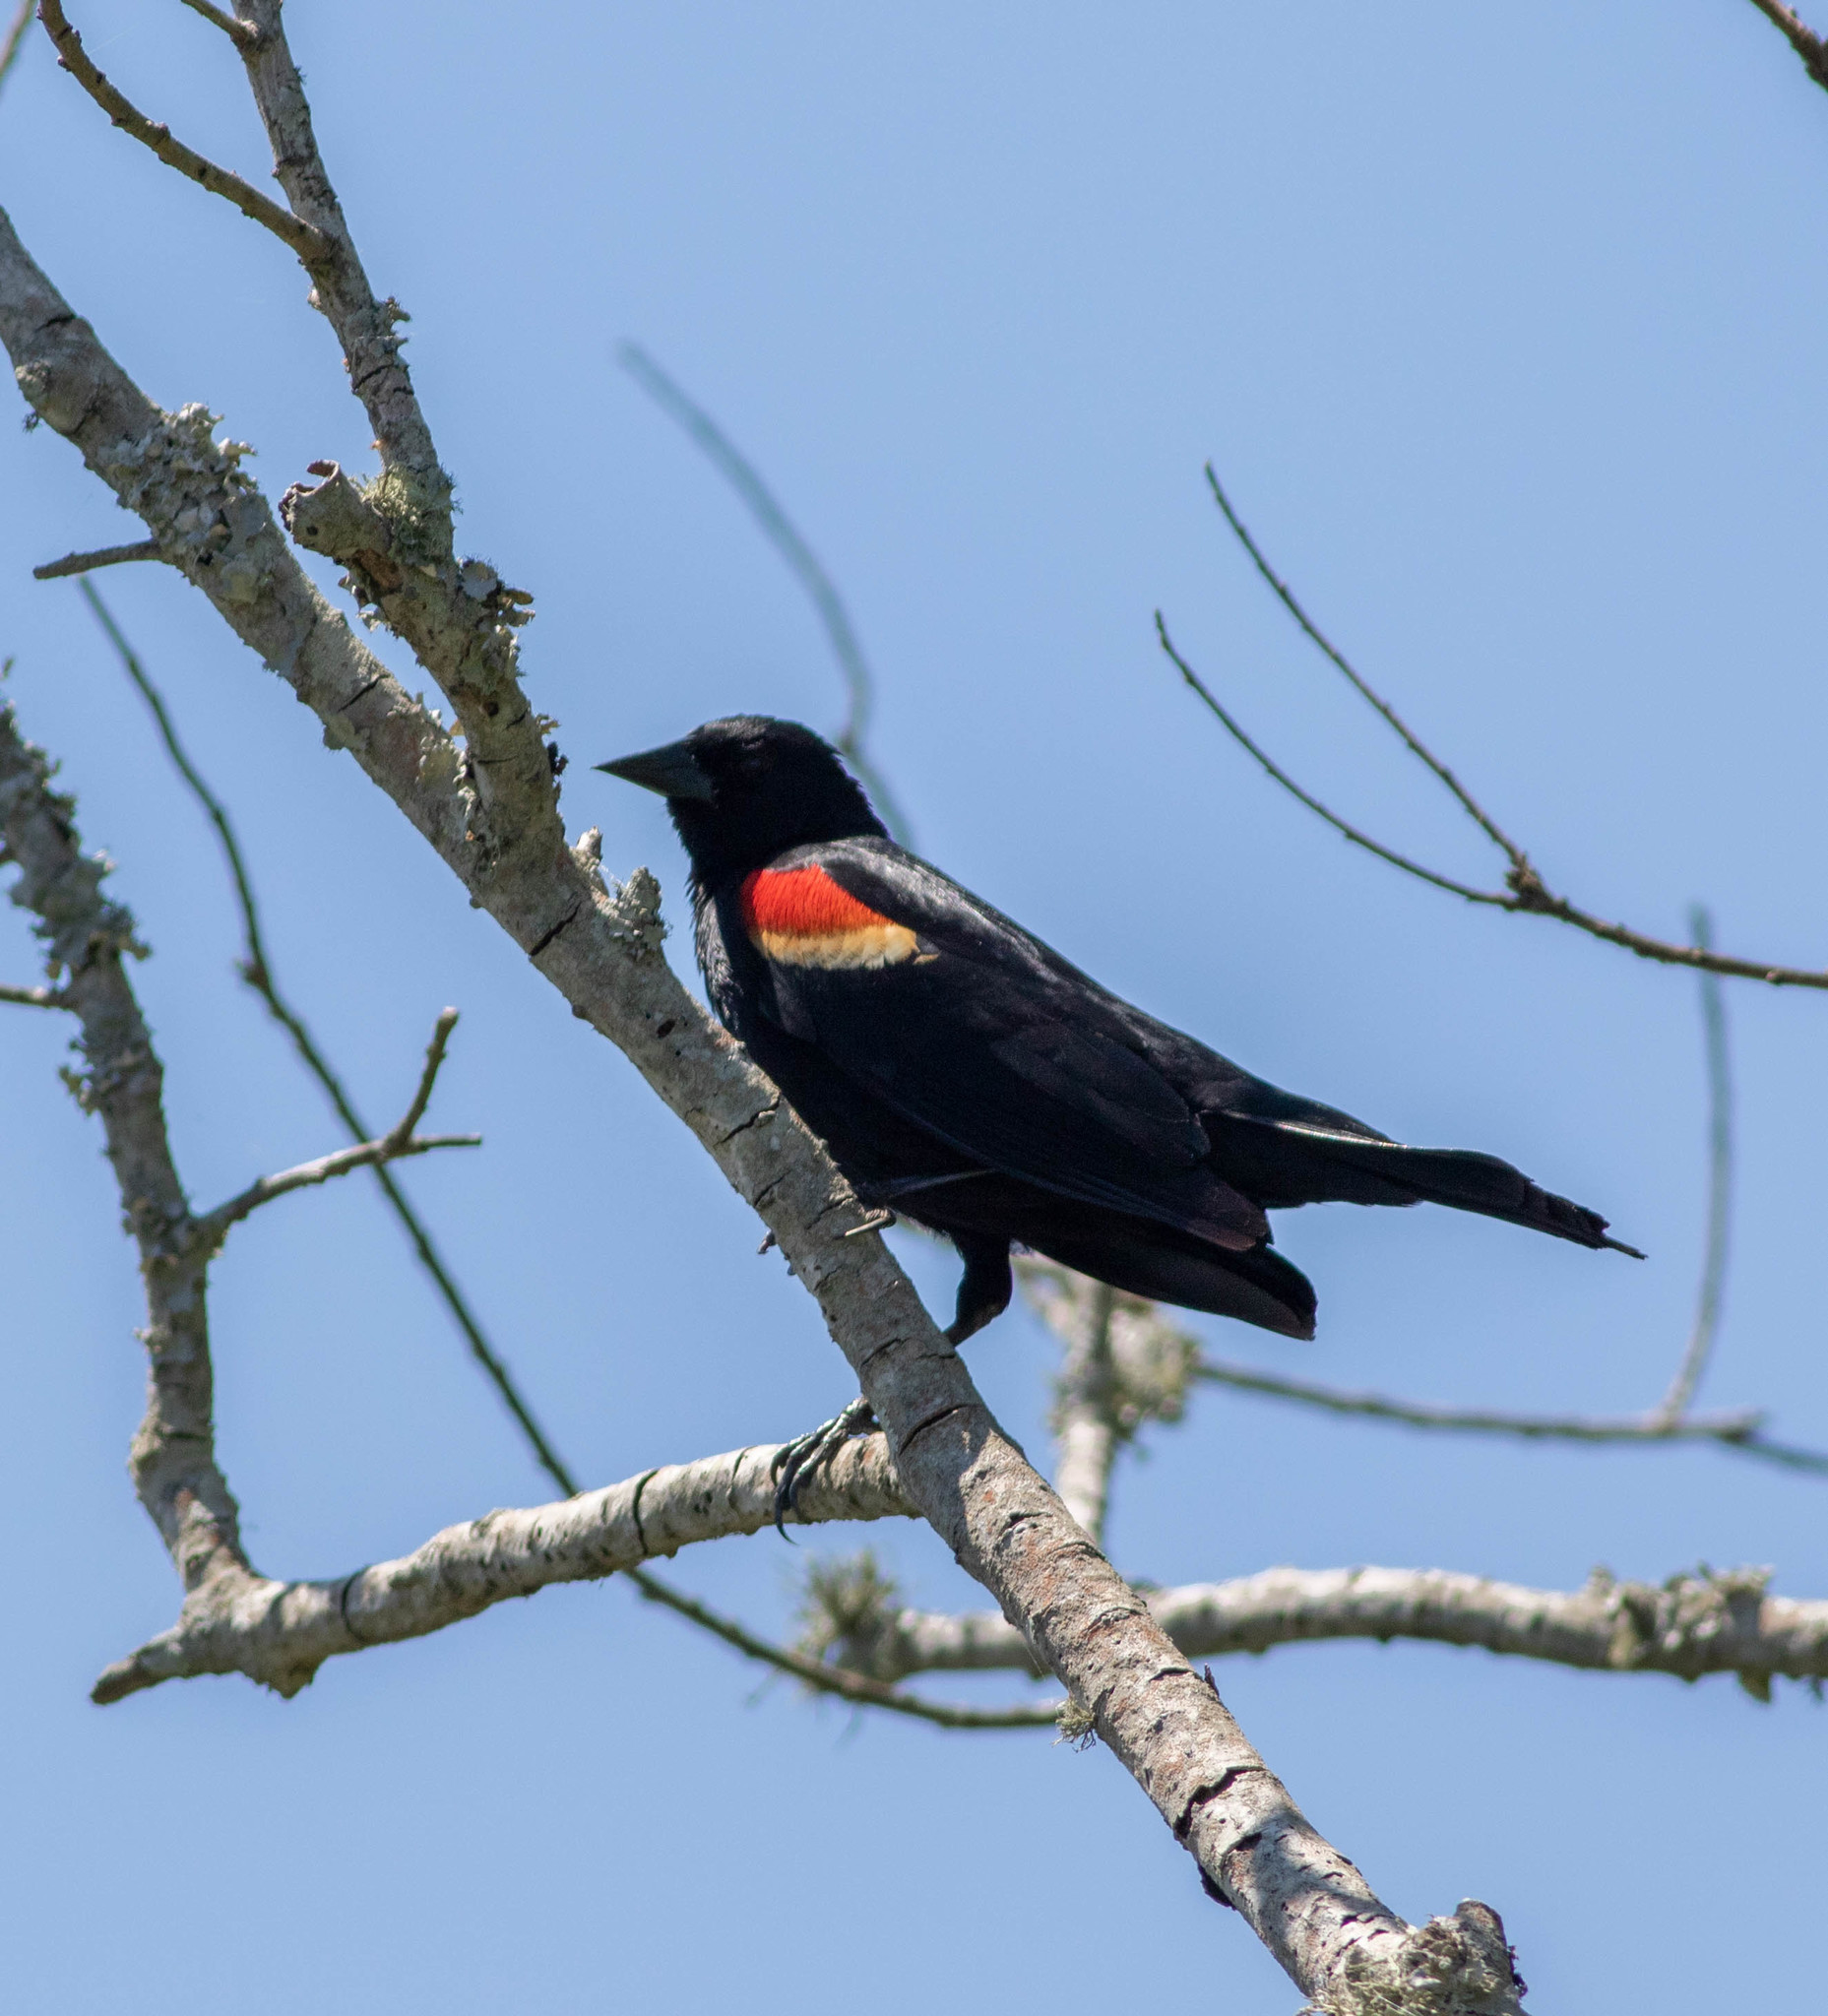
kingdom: Animalia
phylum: Chordata
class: Aves
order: Passeriformes
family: Icteridae
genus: Agelaius
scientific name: Agelaius phoeniceus
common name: Red-winged blackbird
